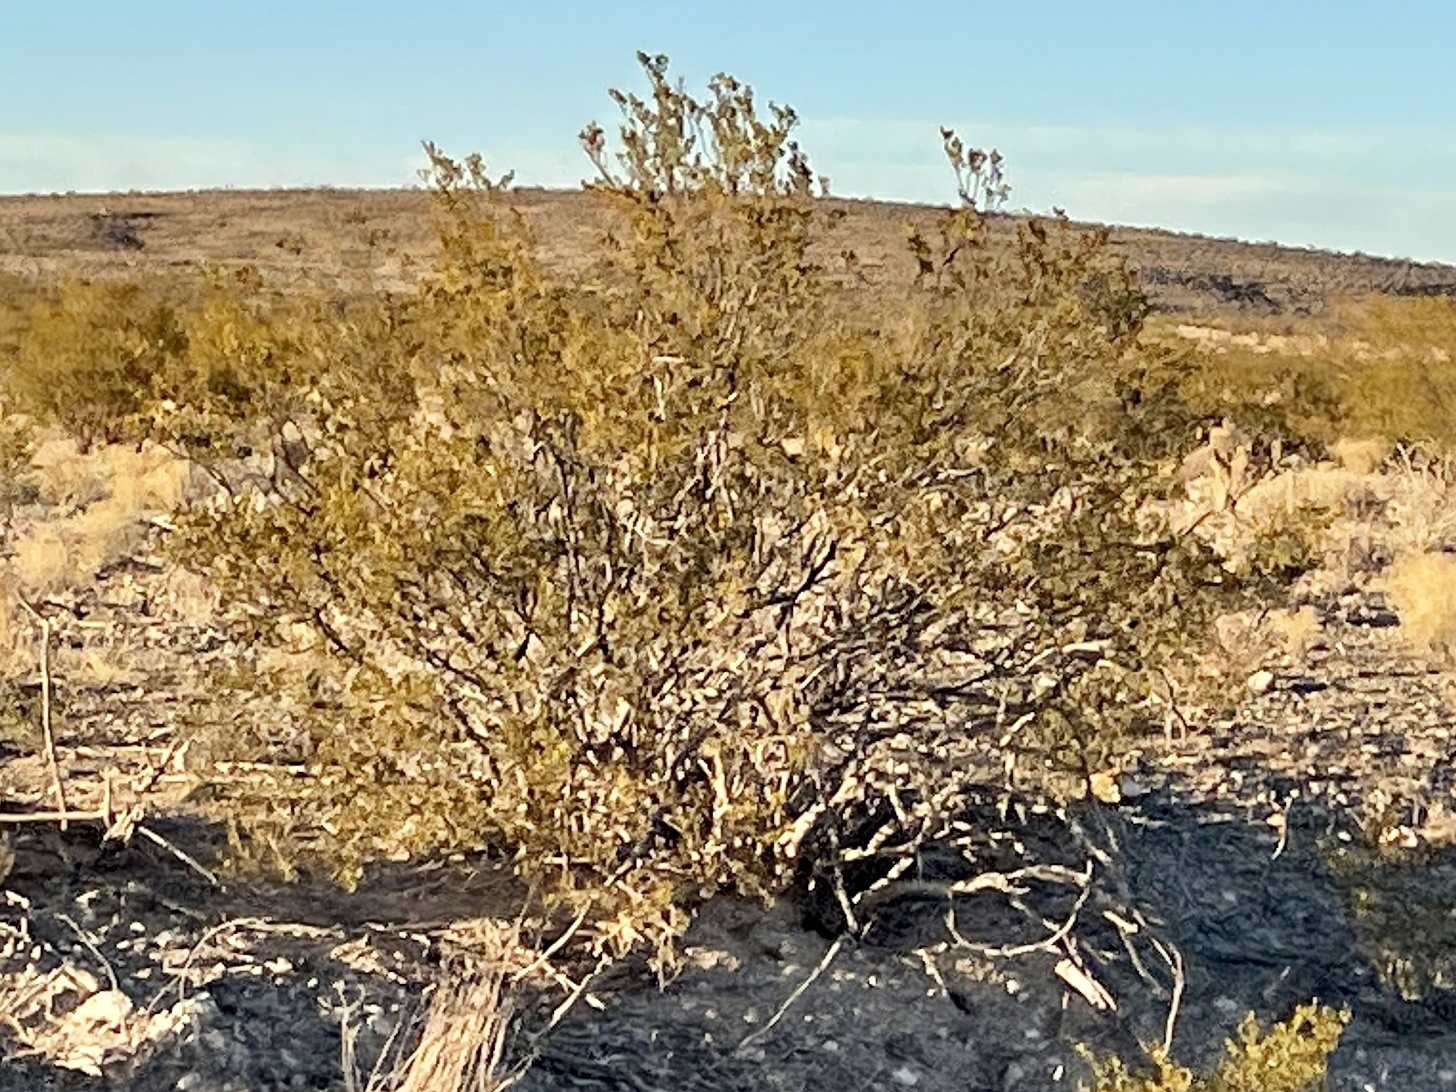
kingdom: Plantae
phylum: Tracheophyta
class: Magnoliopsida
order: Zygophyllales
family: Zygophyllaceae
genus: Larrea
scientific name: Larrea tridentata
